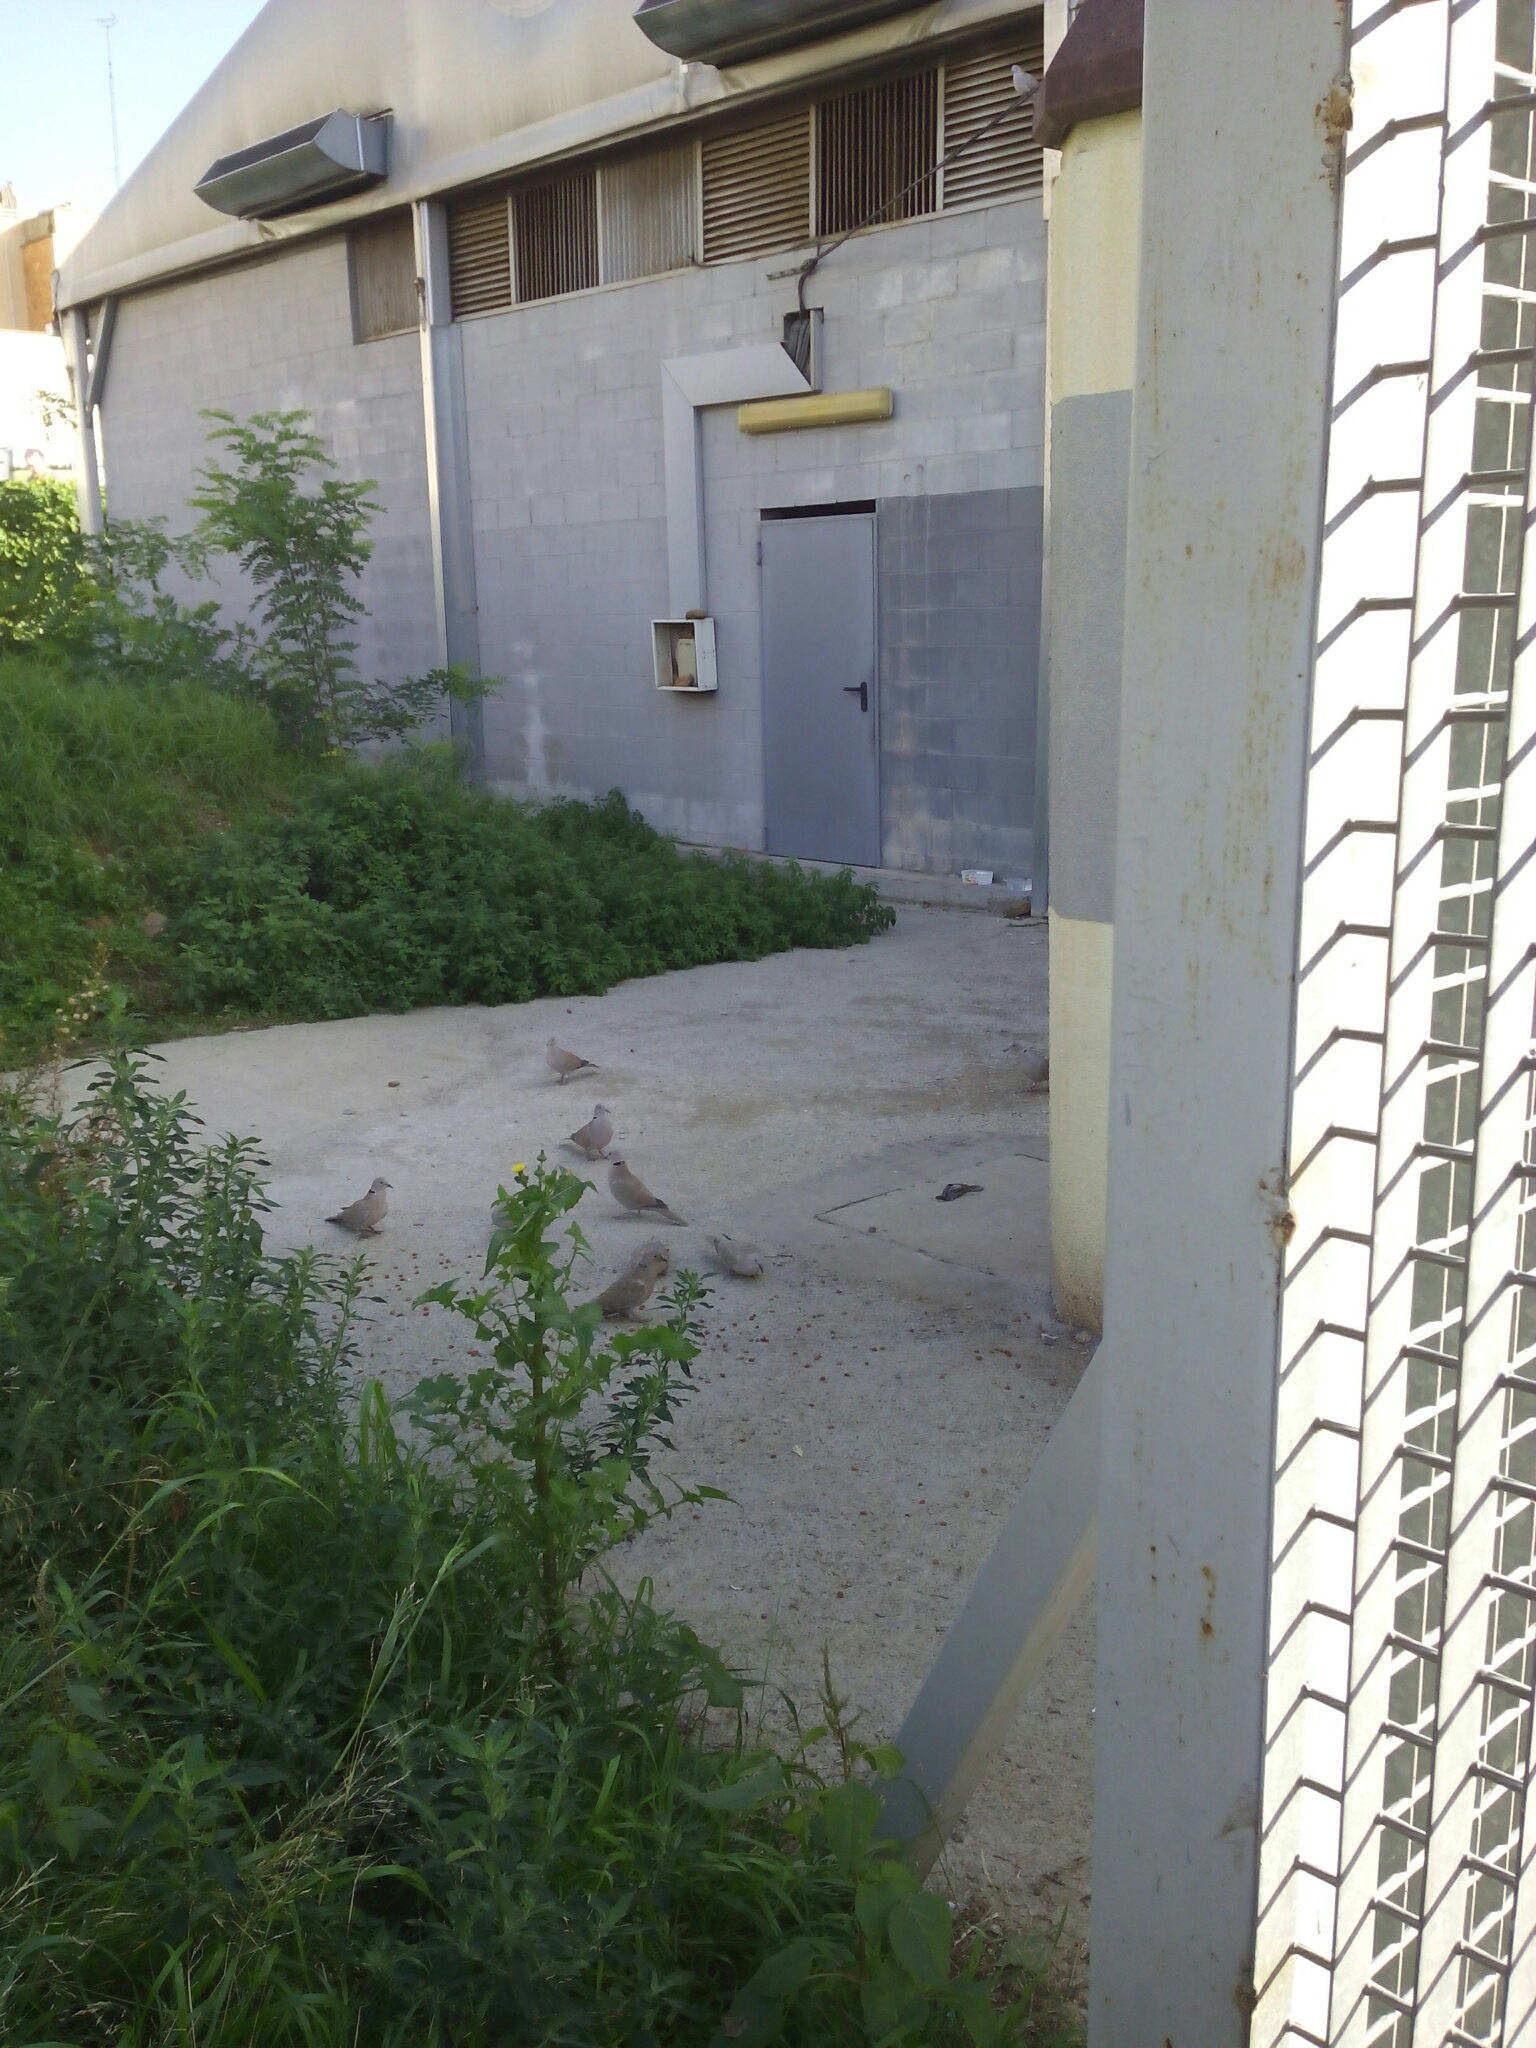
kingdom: Animalia
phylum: Chordata
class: Aves
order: Columbiformes
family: Columbidae
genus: Streptopelia
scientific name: Streptopelia decaocto
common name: Eurasian collared dove
